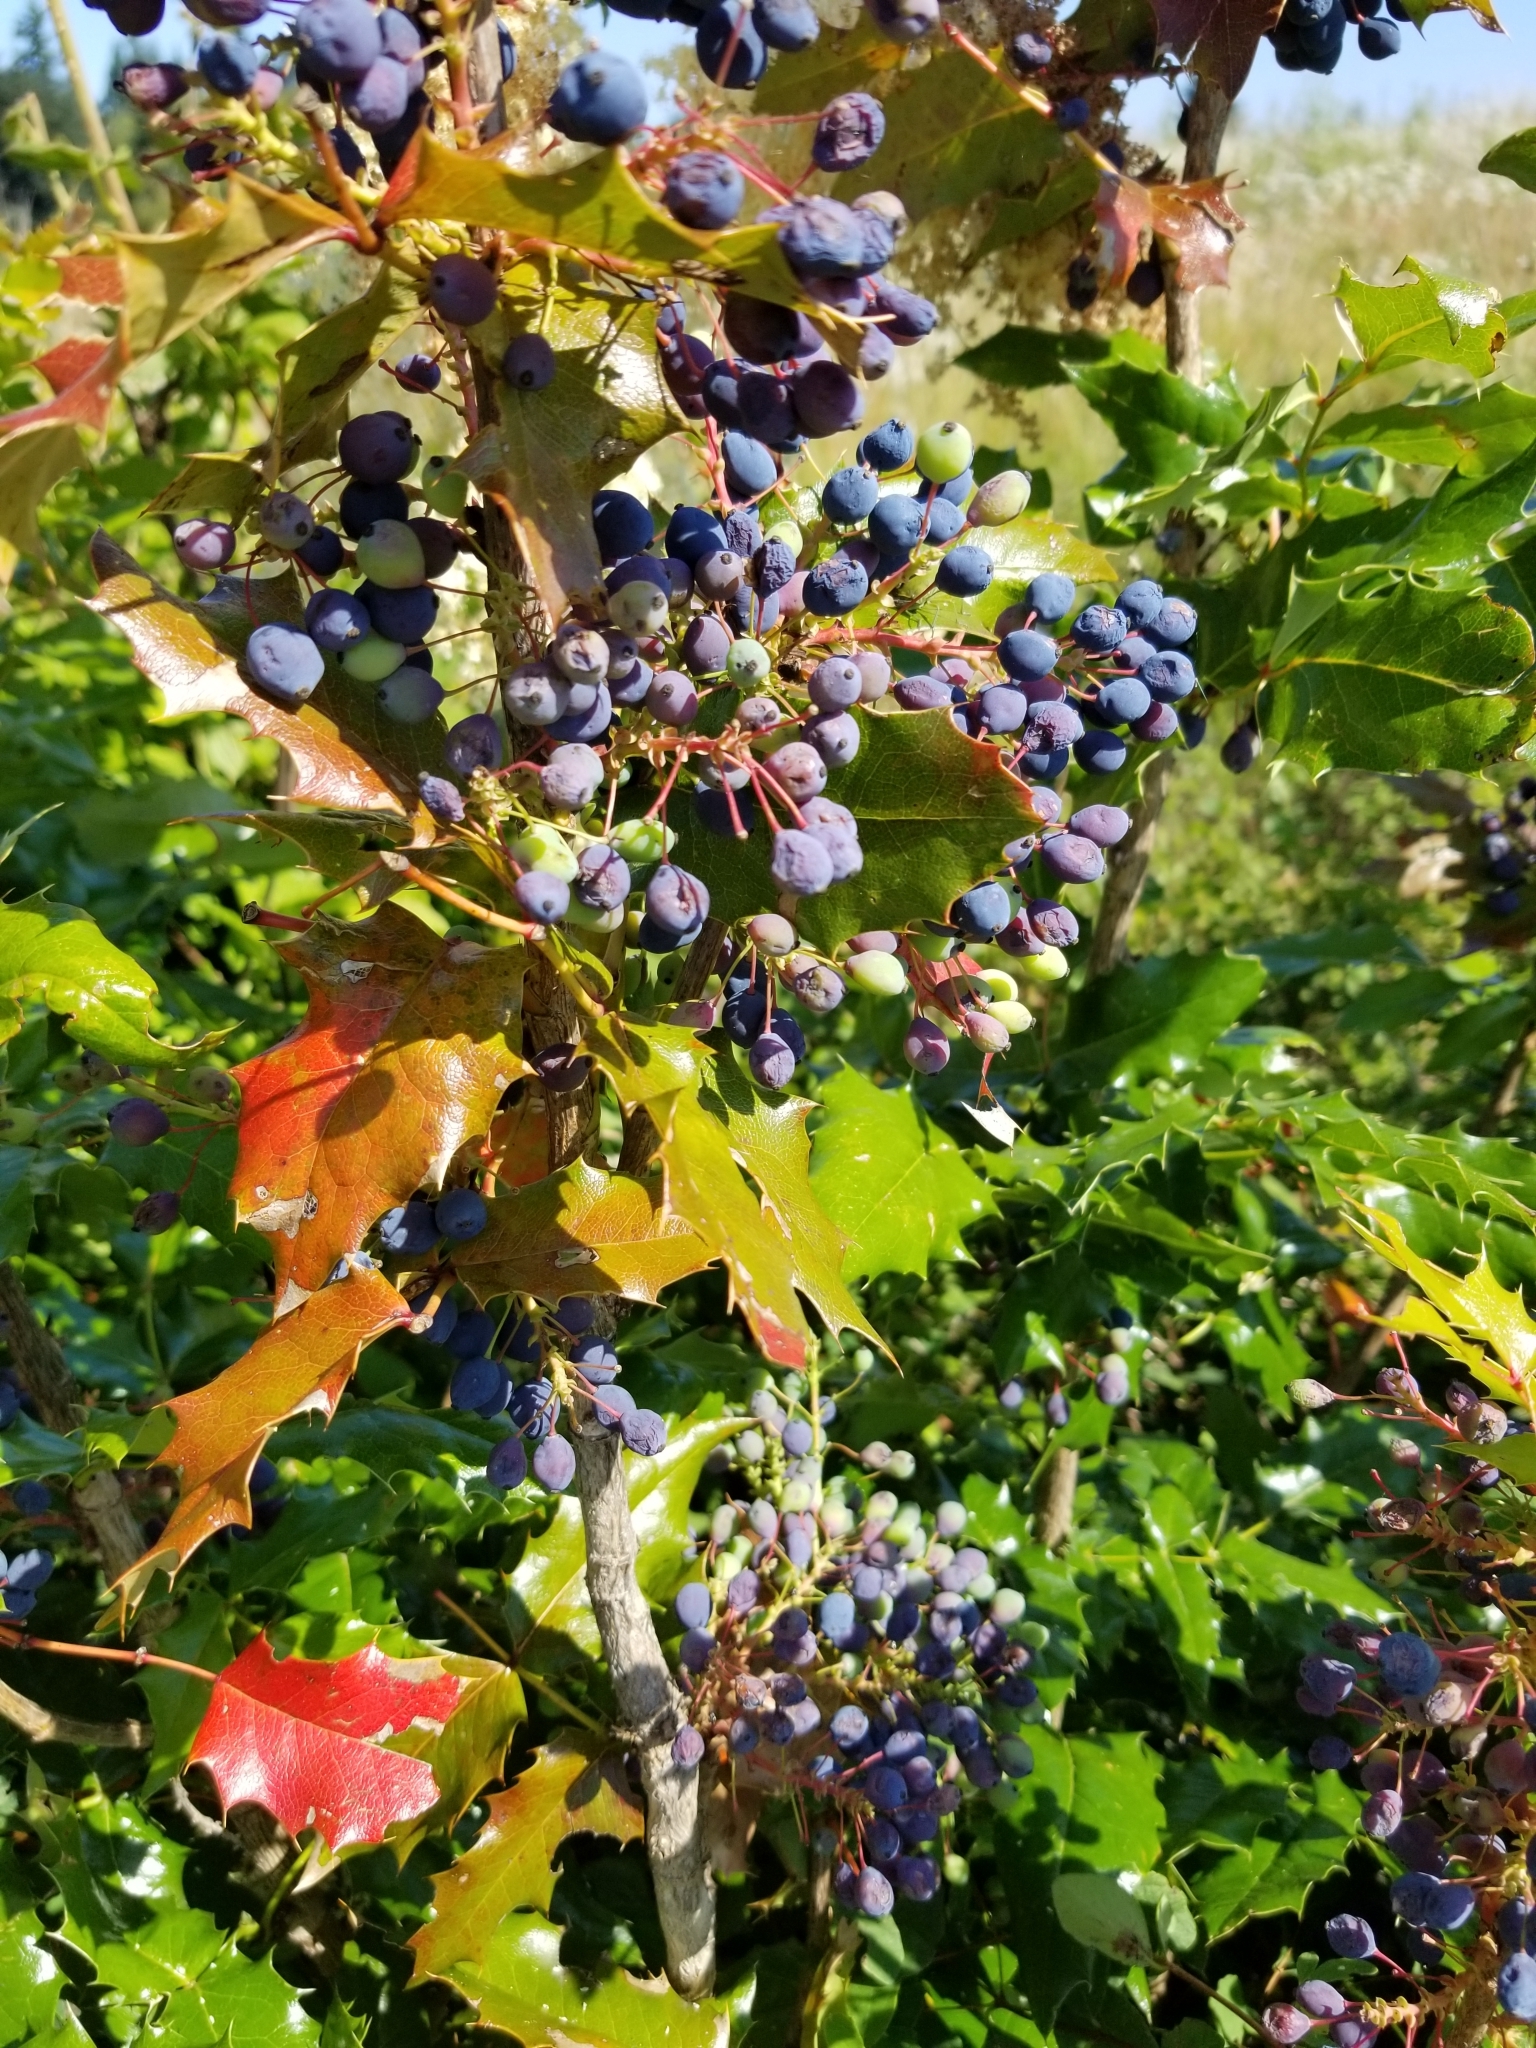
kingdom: Plantae
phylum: Tracheophyta
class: Magnoliopsida
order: Ranunculales
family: Berberidaceae
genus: Mahonia
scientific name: Mahonia aquifolium
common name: Oregon-grape
